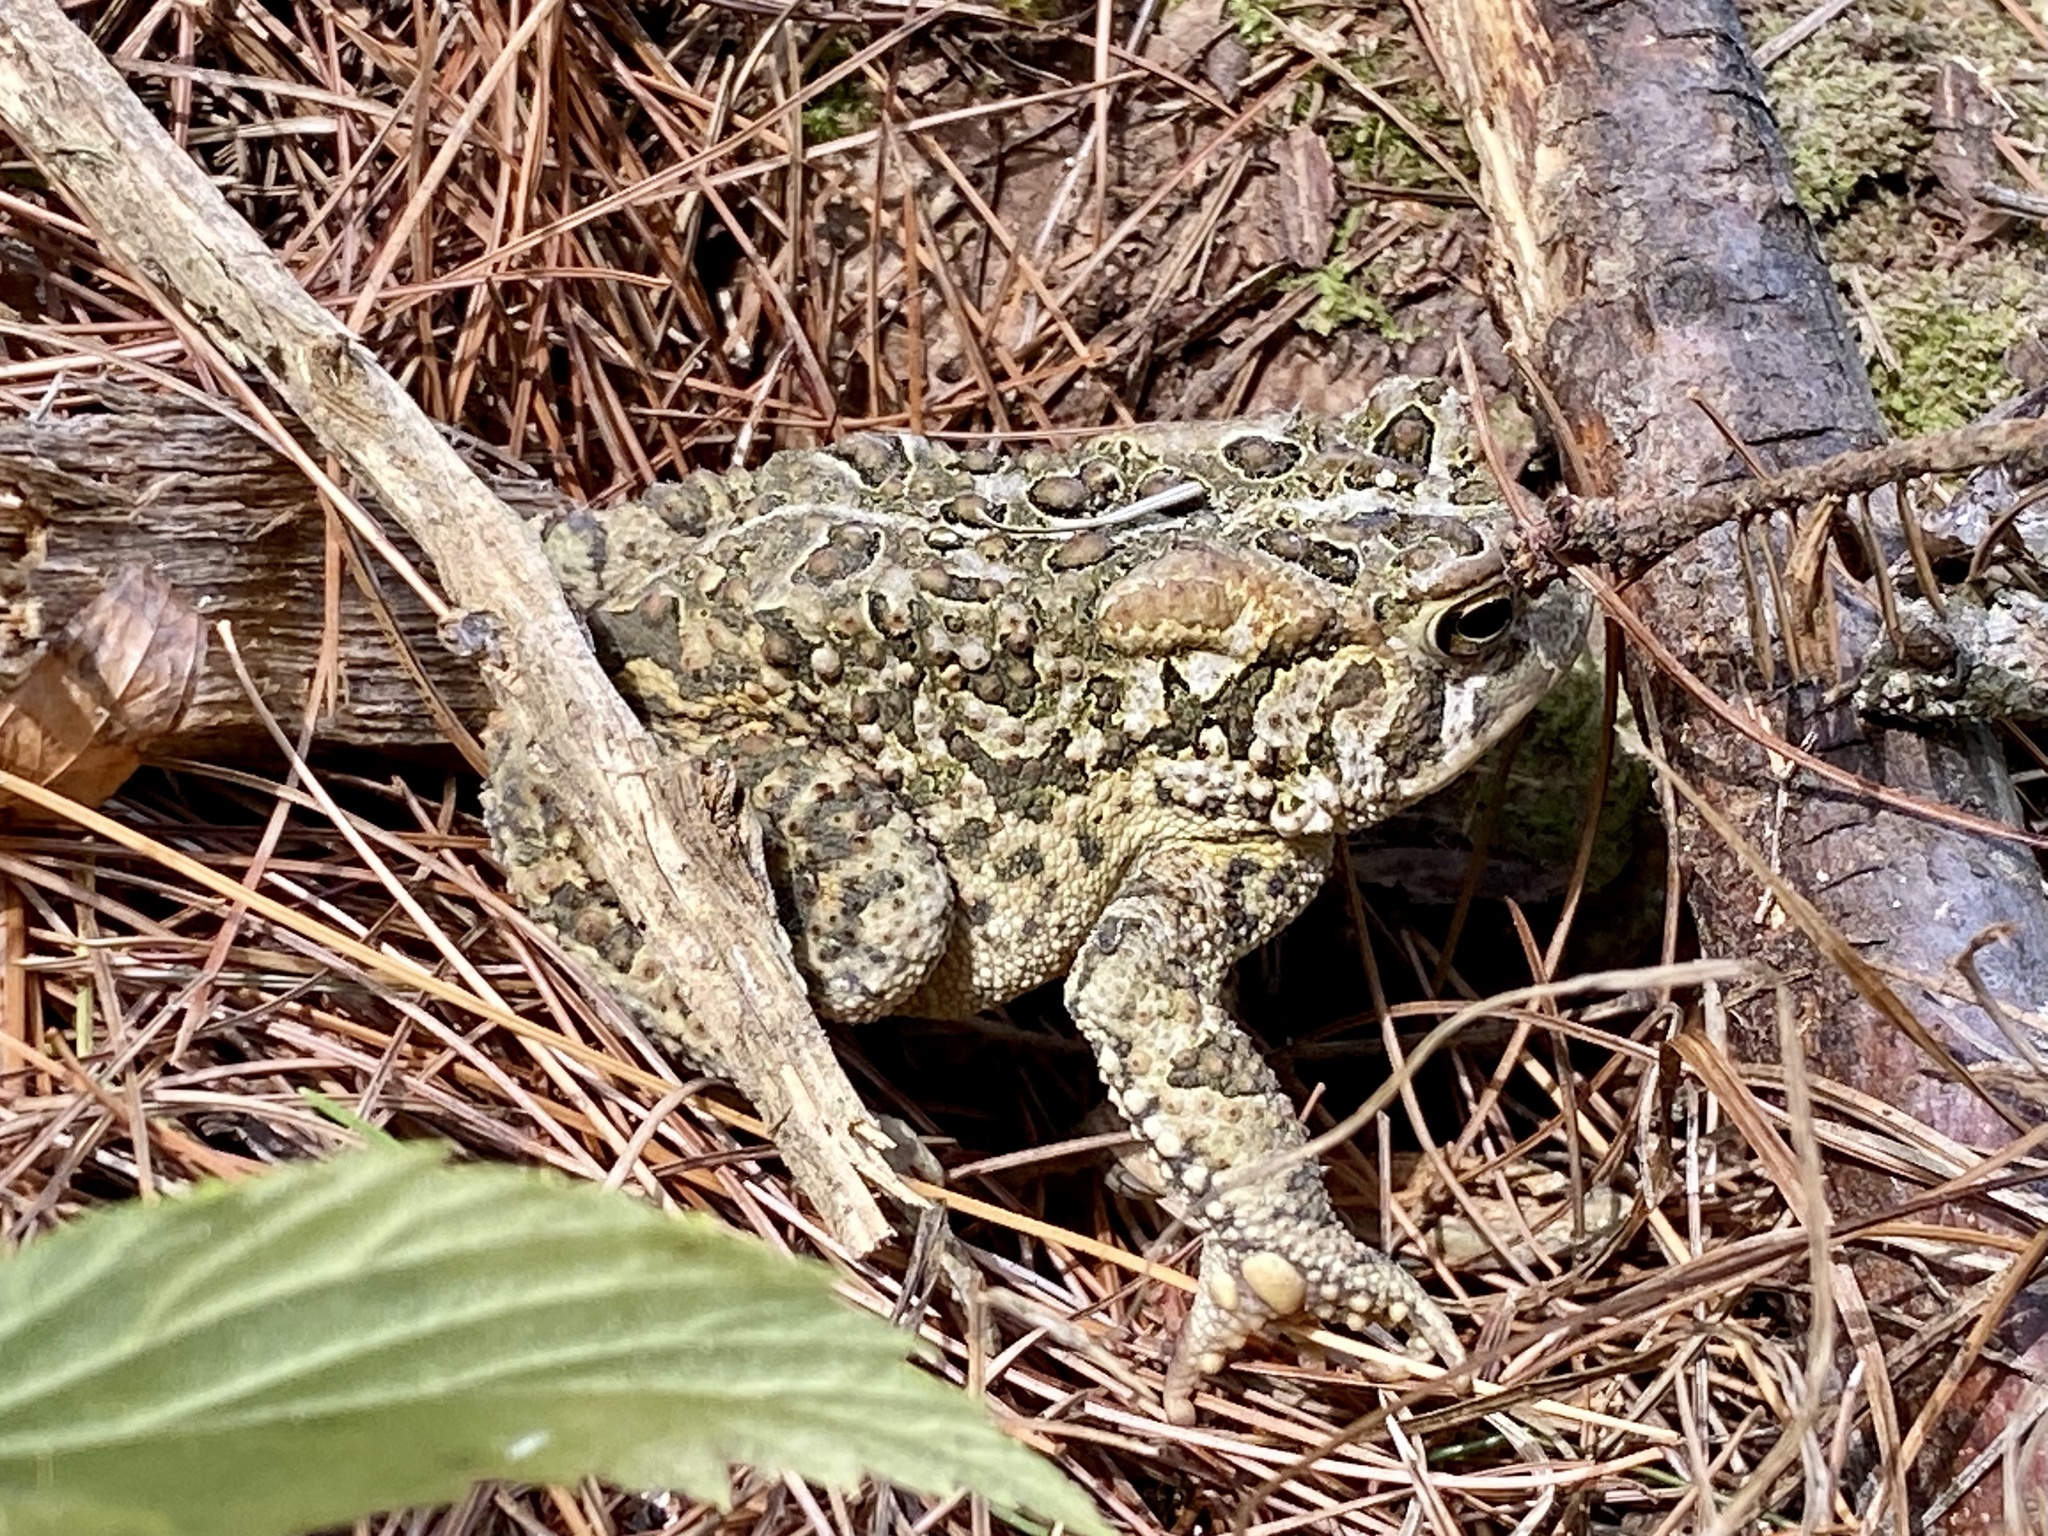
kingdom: Animalia
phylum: Chordata
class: Amphibia
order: Anura
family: Bufonidae
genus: Anaxyrus
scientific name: Anaxyrus americanus
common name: American toad
